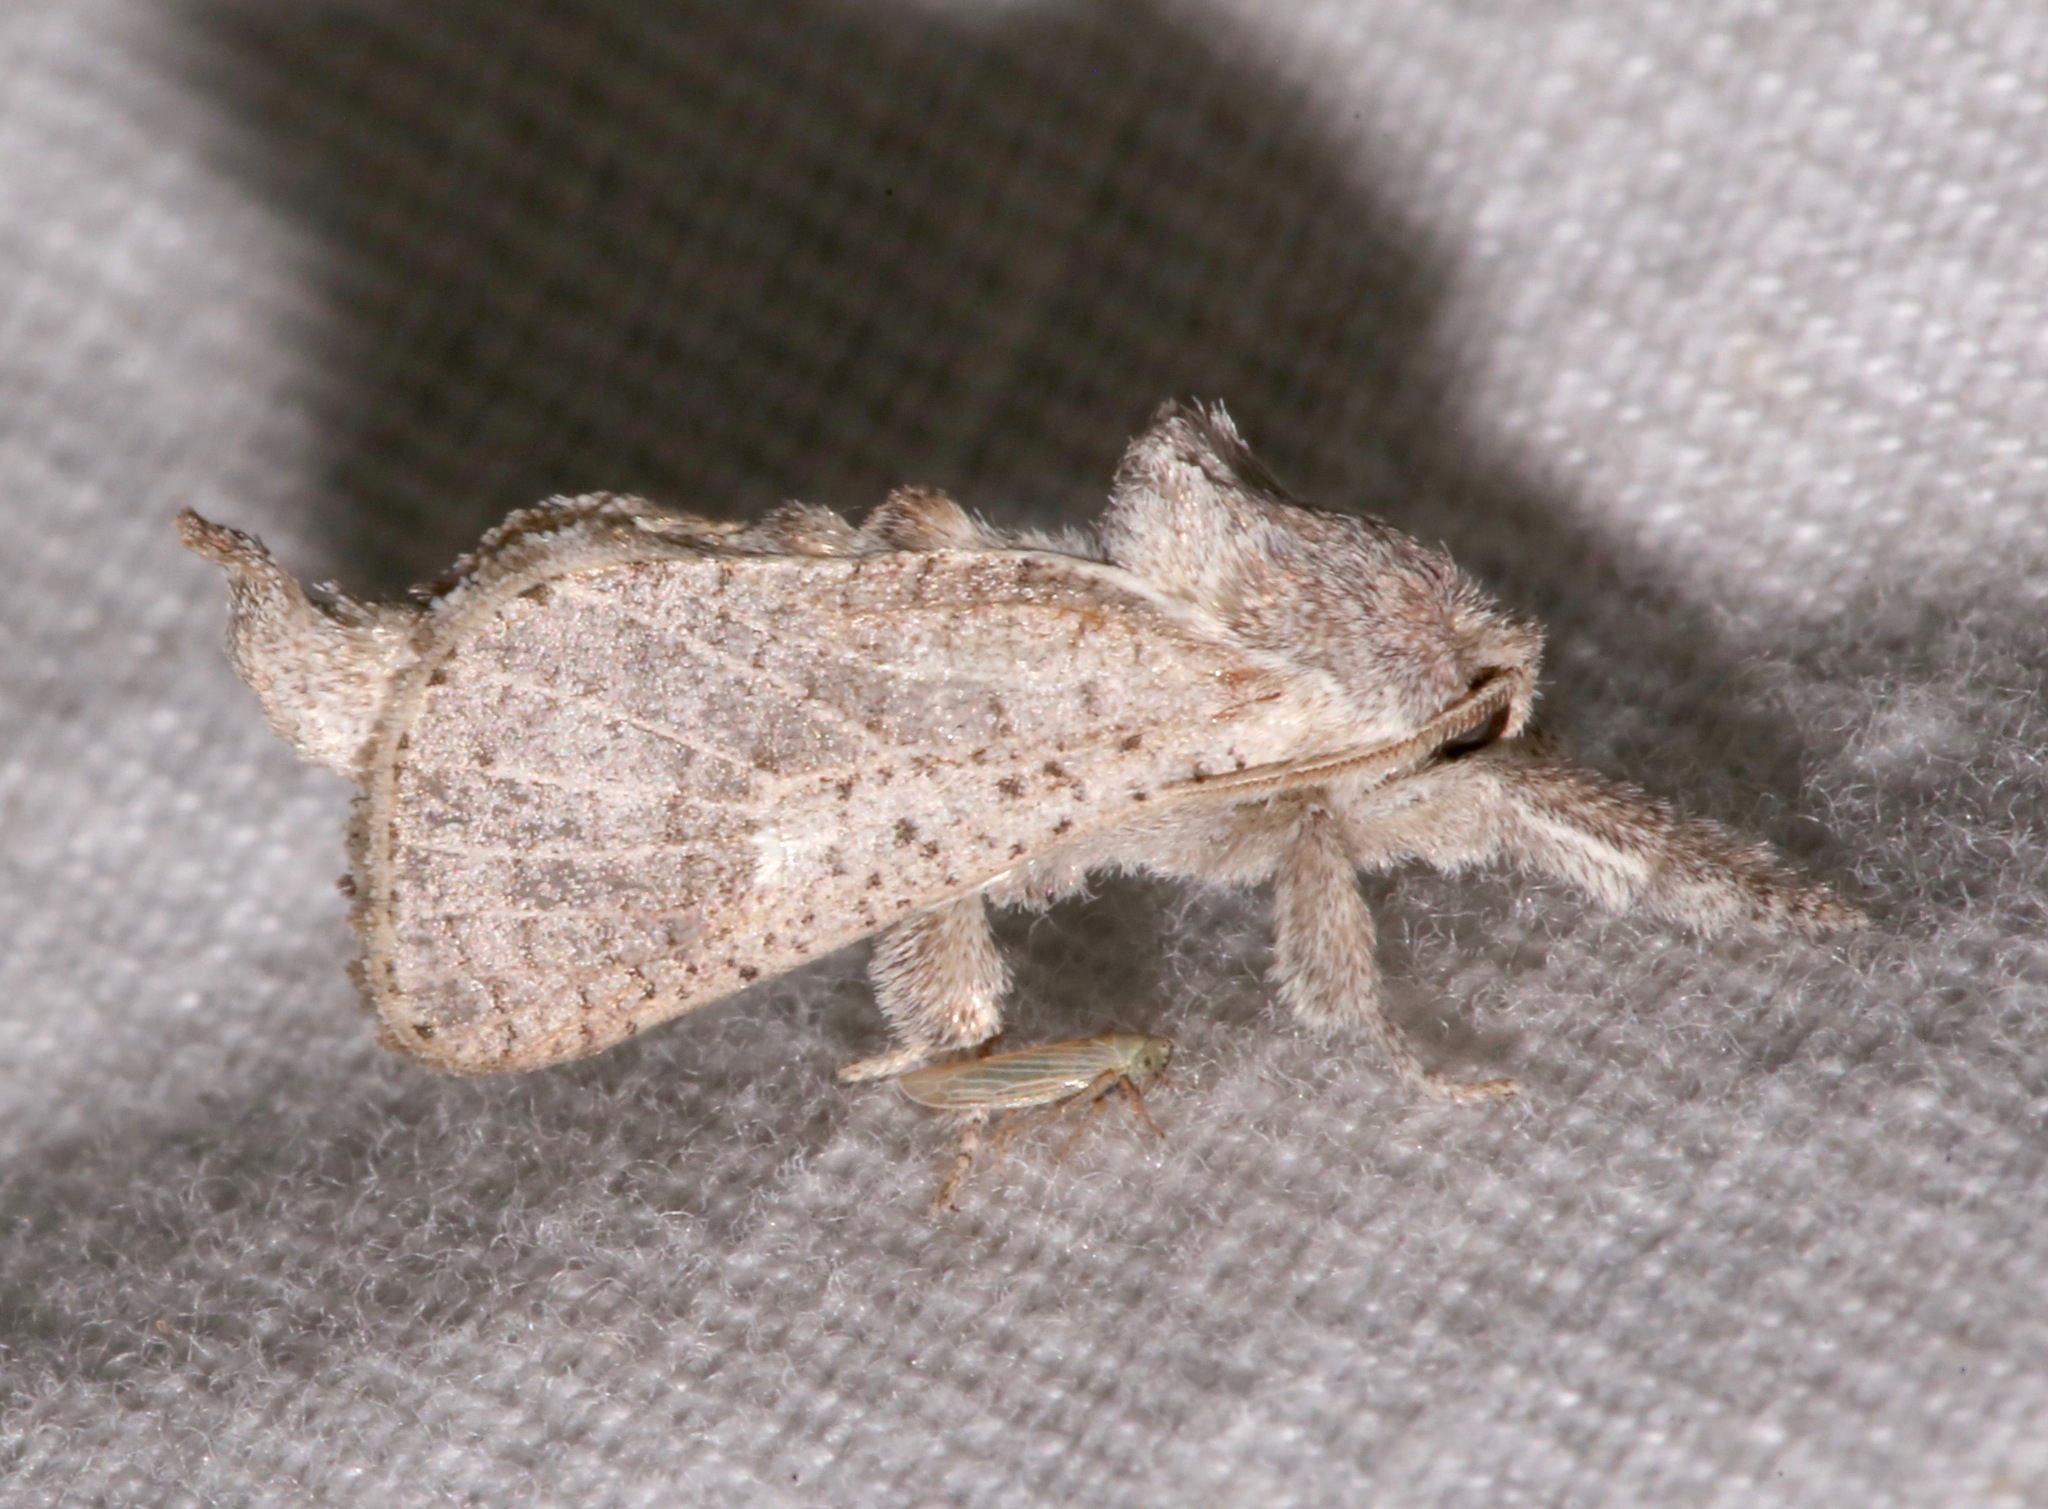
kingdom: Animalia
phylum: Arthropoda
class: Insecta
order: Lepidoptera
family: Cossidae
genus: Givira
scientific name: Givira anna
